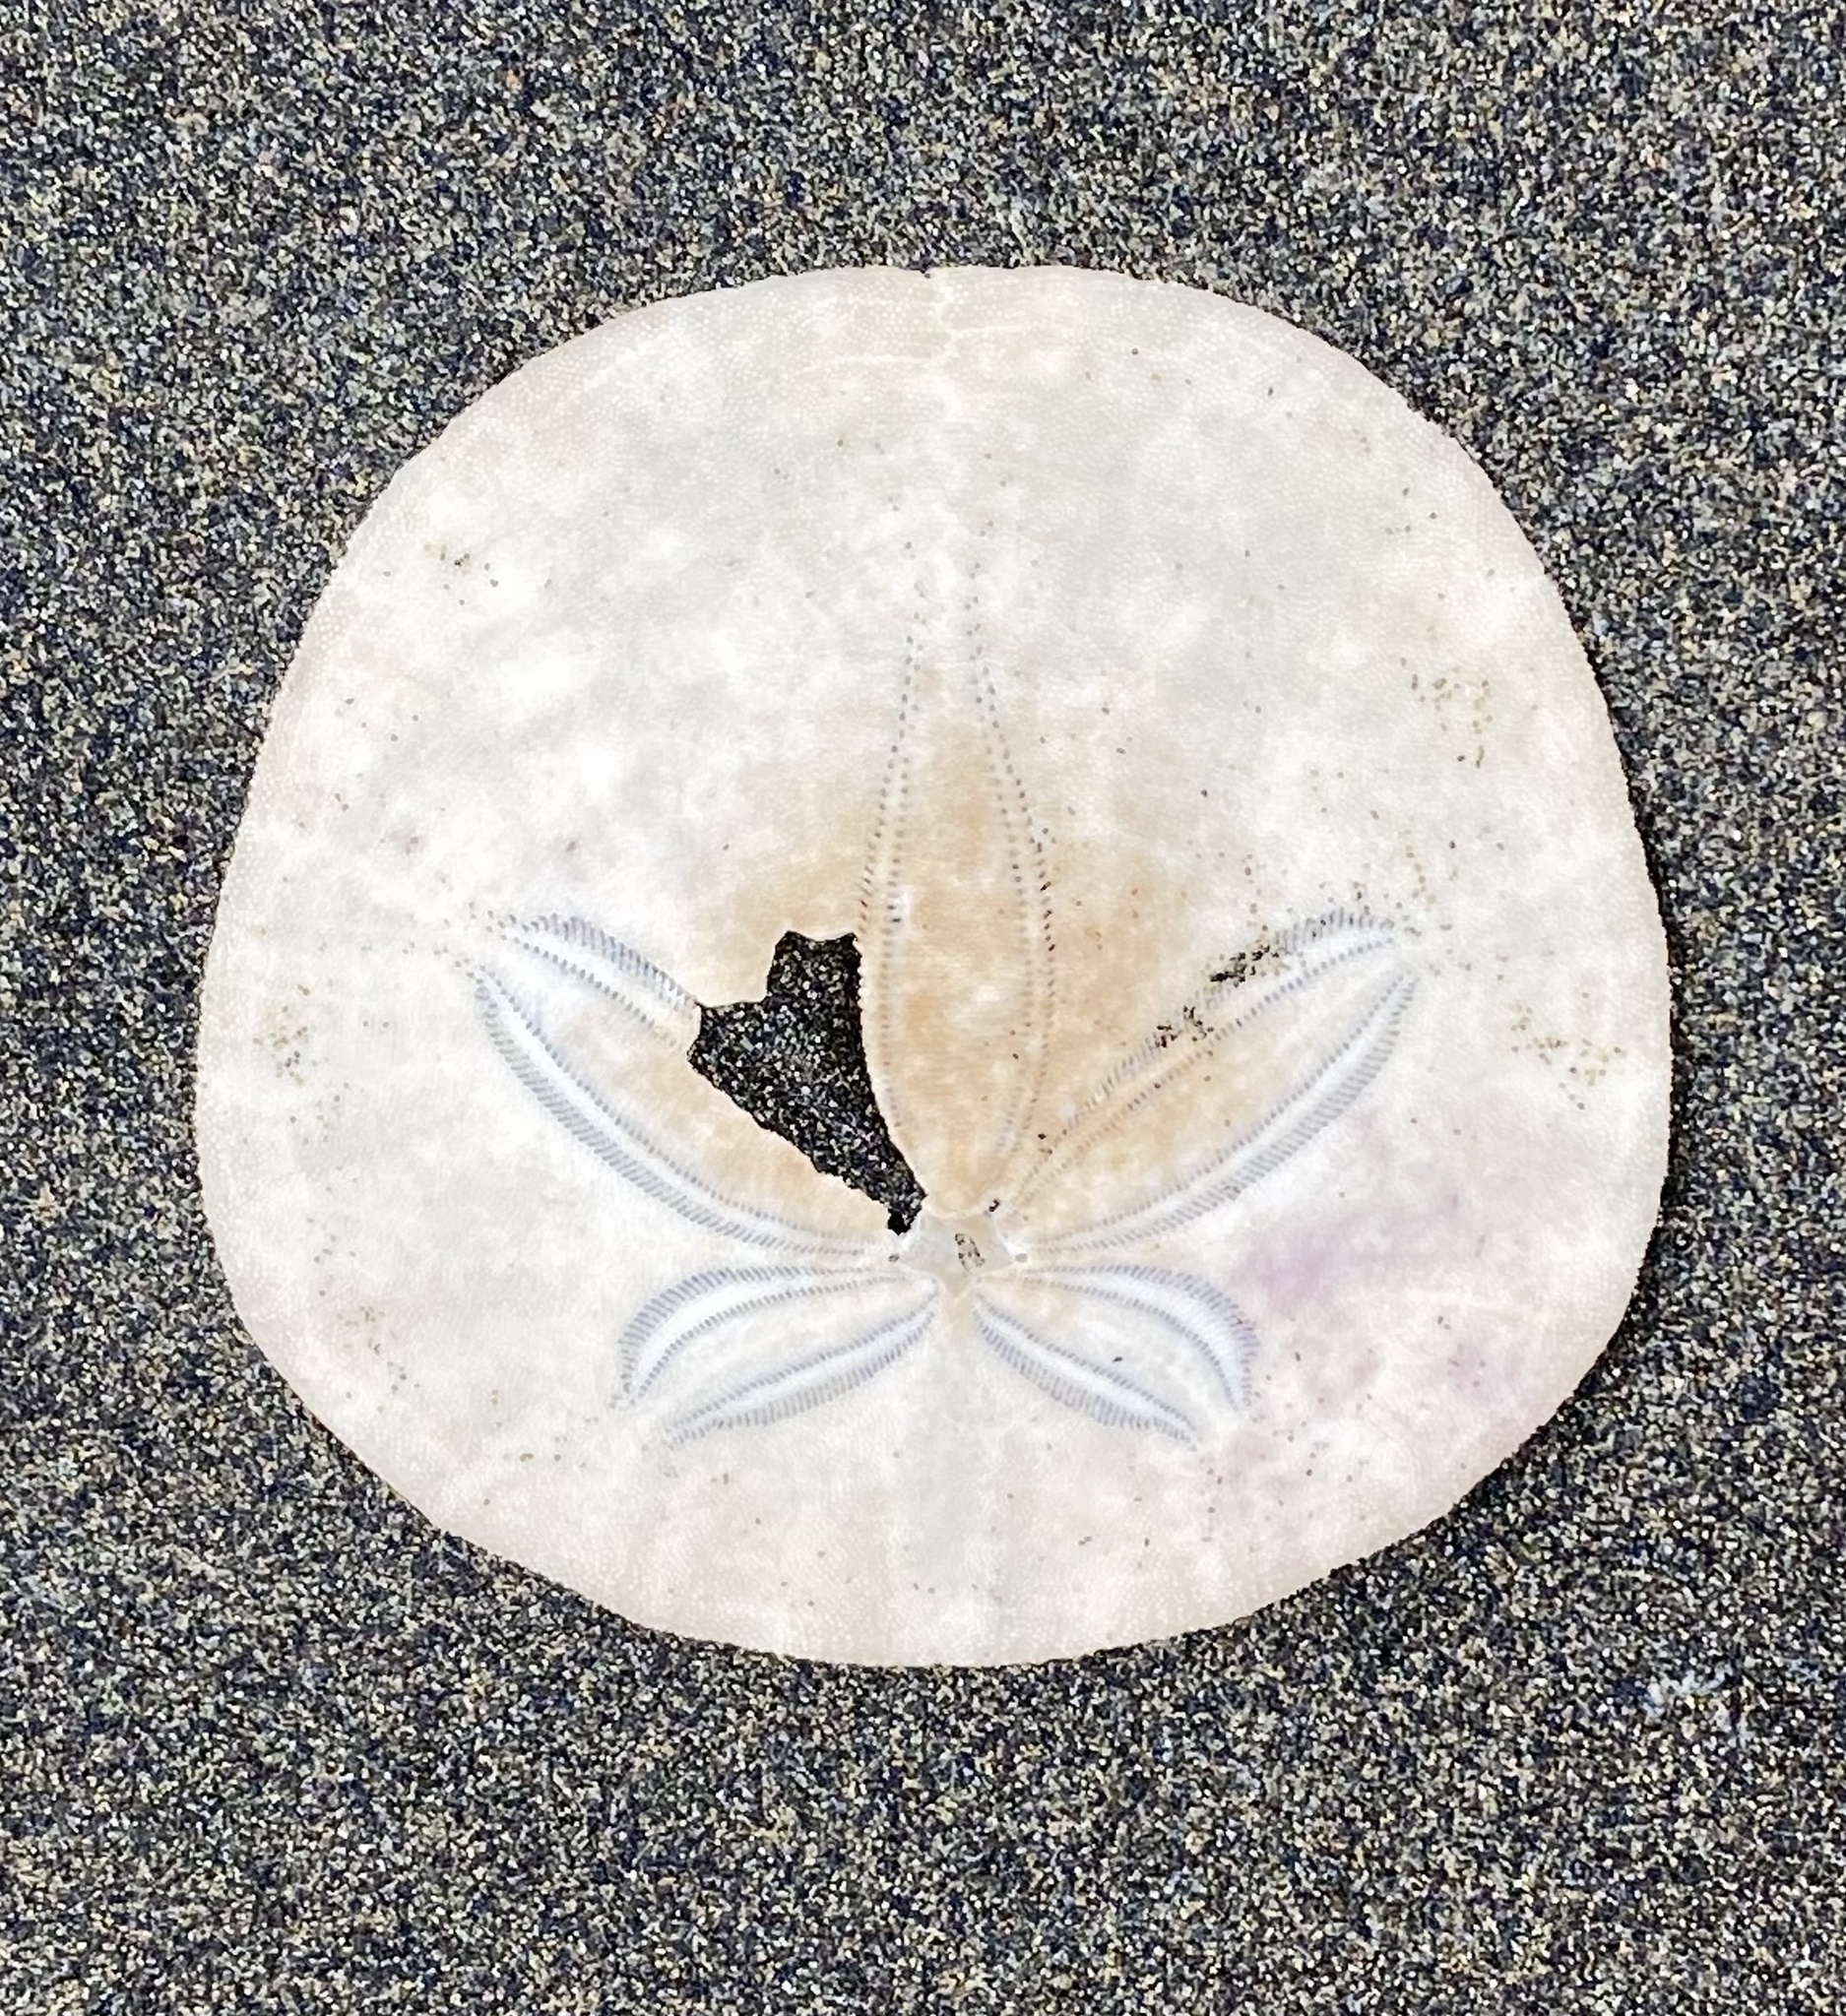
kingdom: Animalia
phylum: Echinodermata
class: Echinoidea
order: Echinolampadacea
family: Dendrasteridae
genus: Dendraster
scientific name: Dendraster excentricus
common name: Eccentric sand dollar sea urchin
